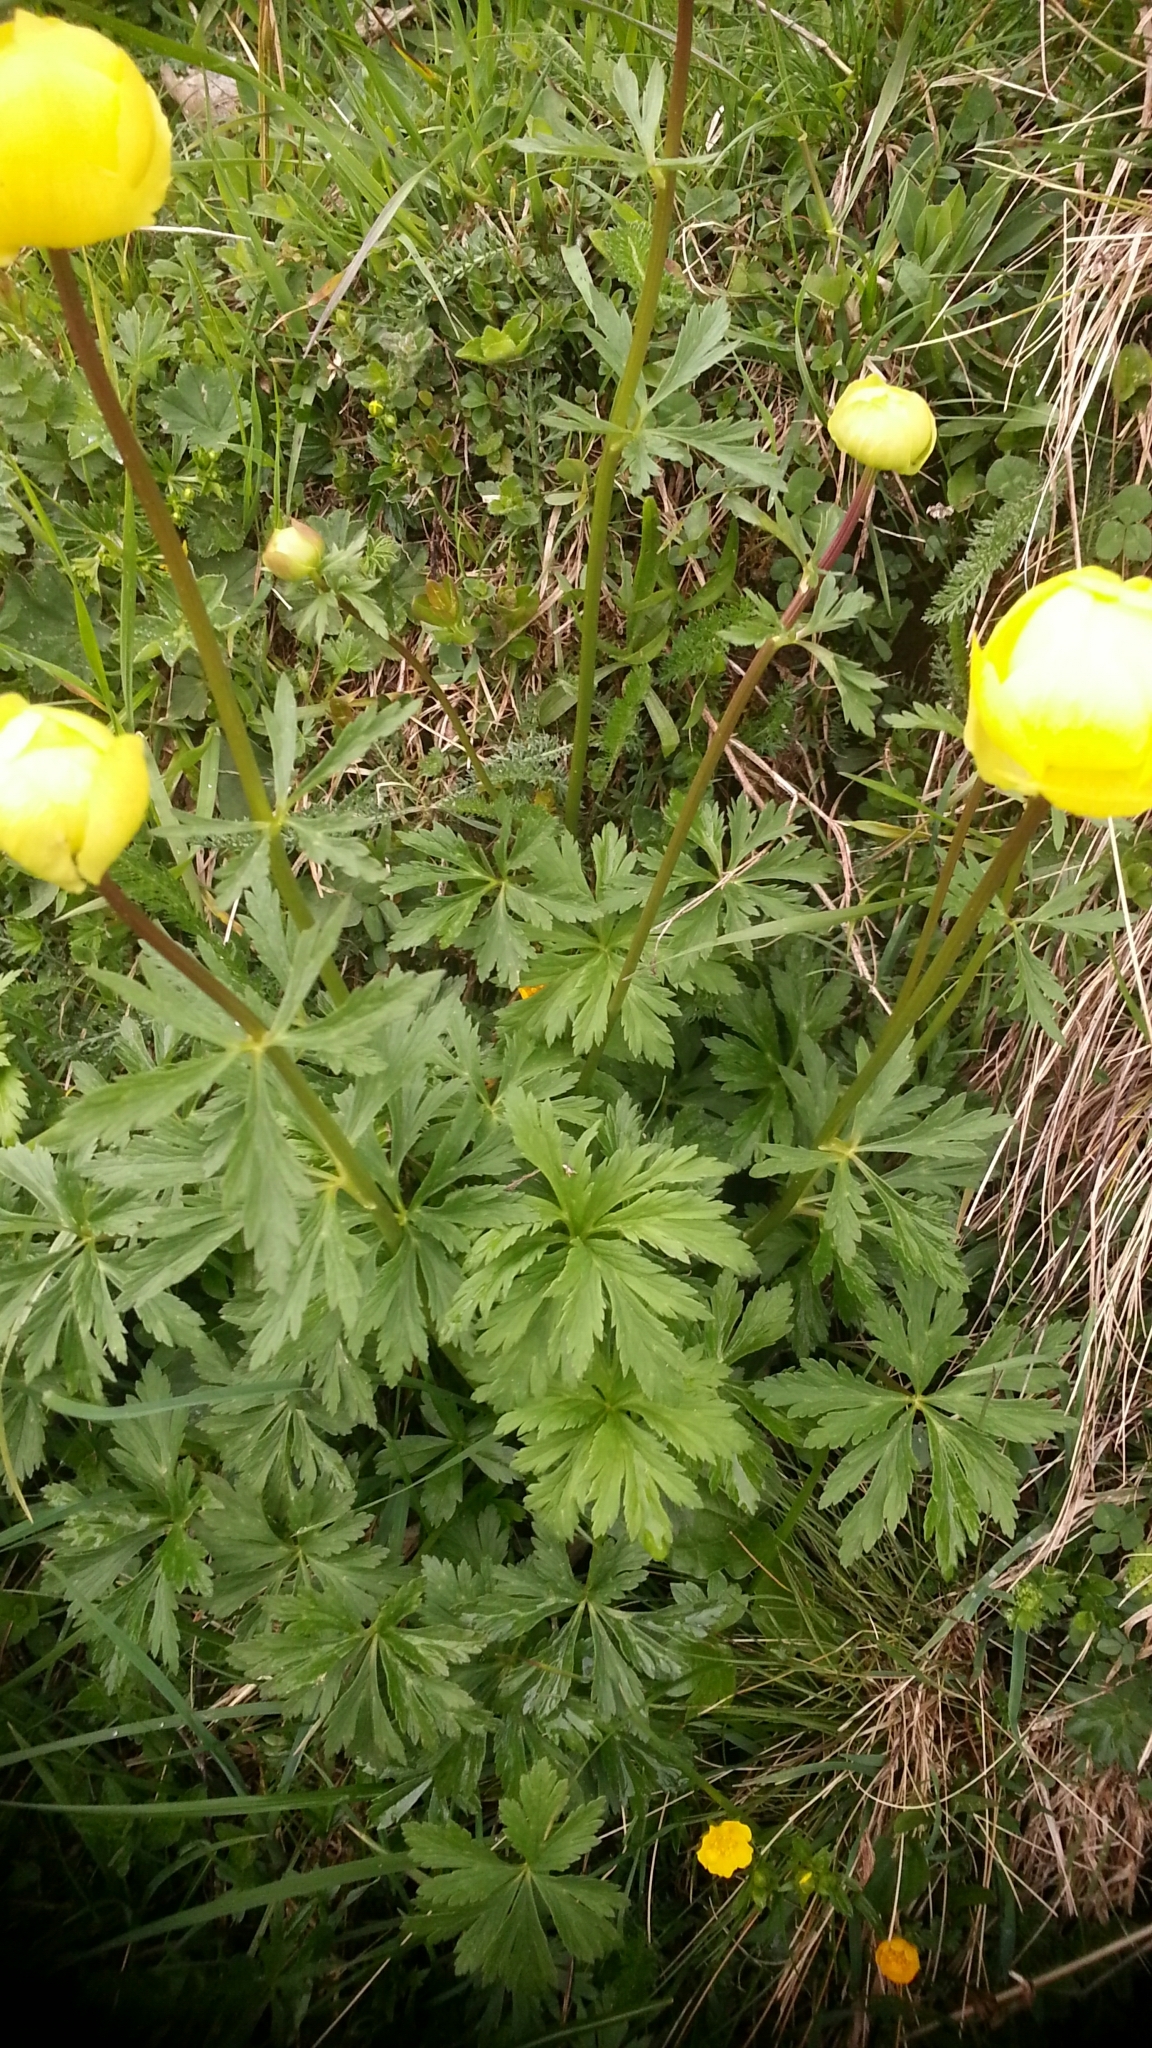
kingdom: Plantae
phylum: Tracheophyta
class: Magnoliopsida
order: Ranunculales
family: Ranunculaceae
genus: Trollius
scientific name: Trollius europaeus
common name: European globeflower
